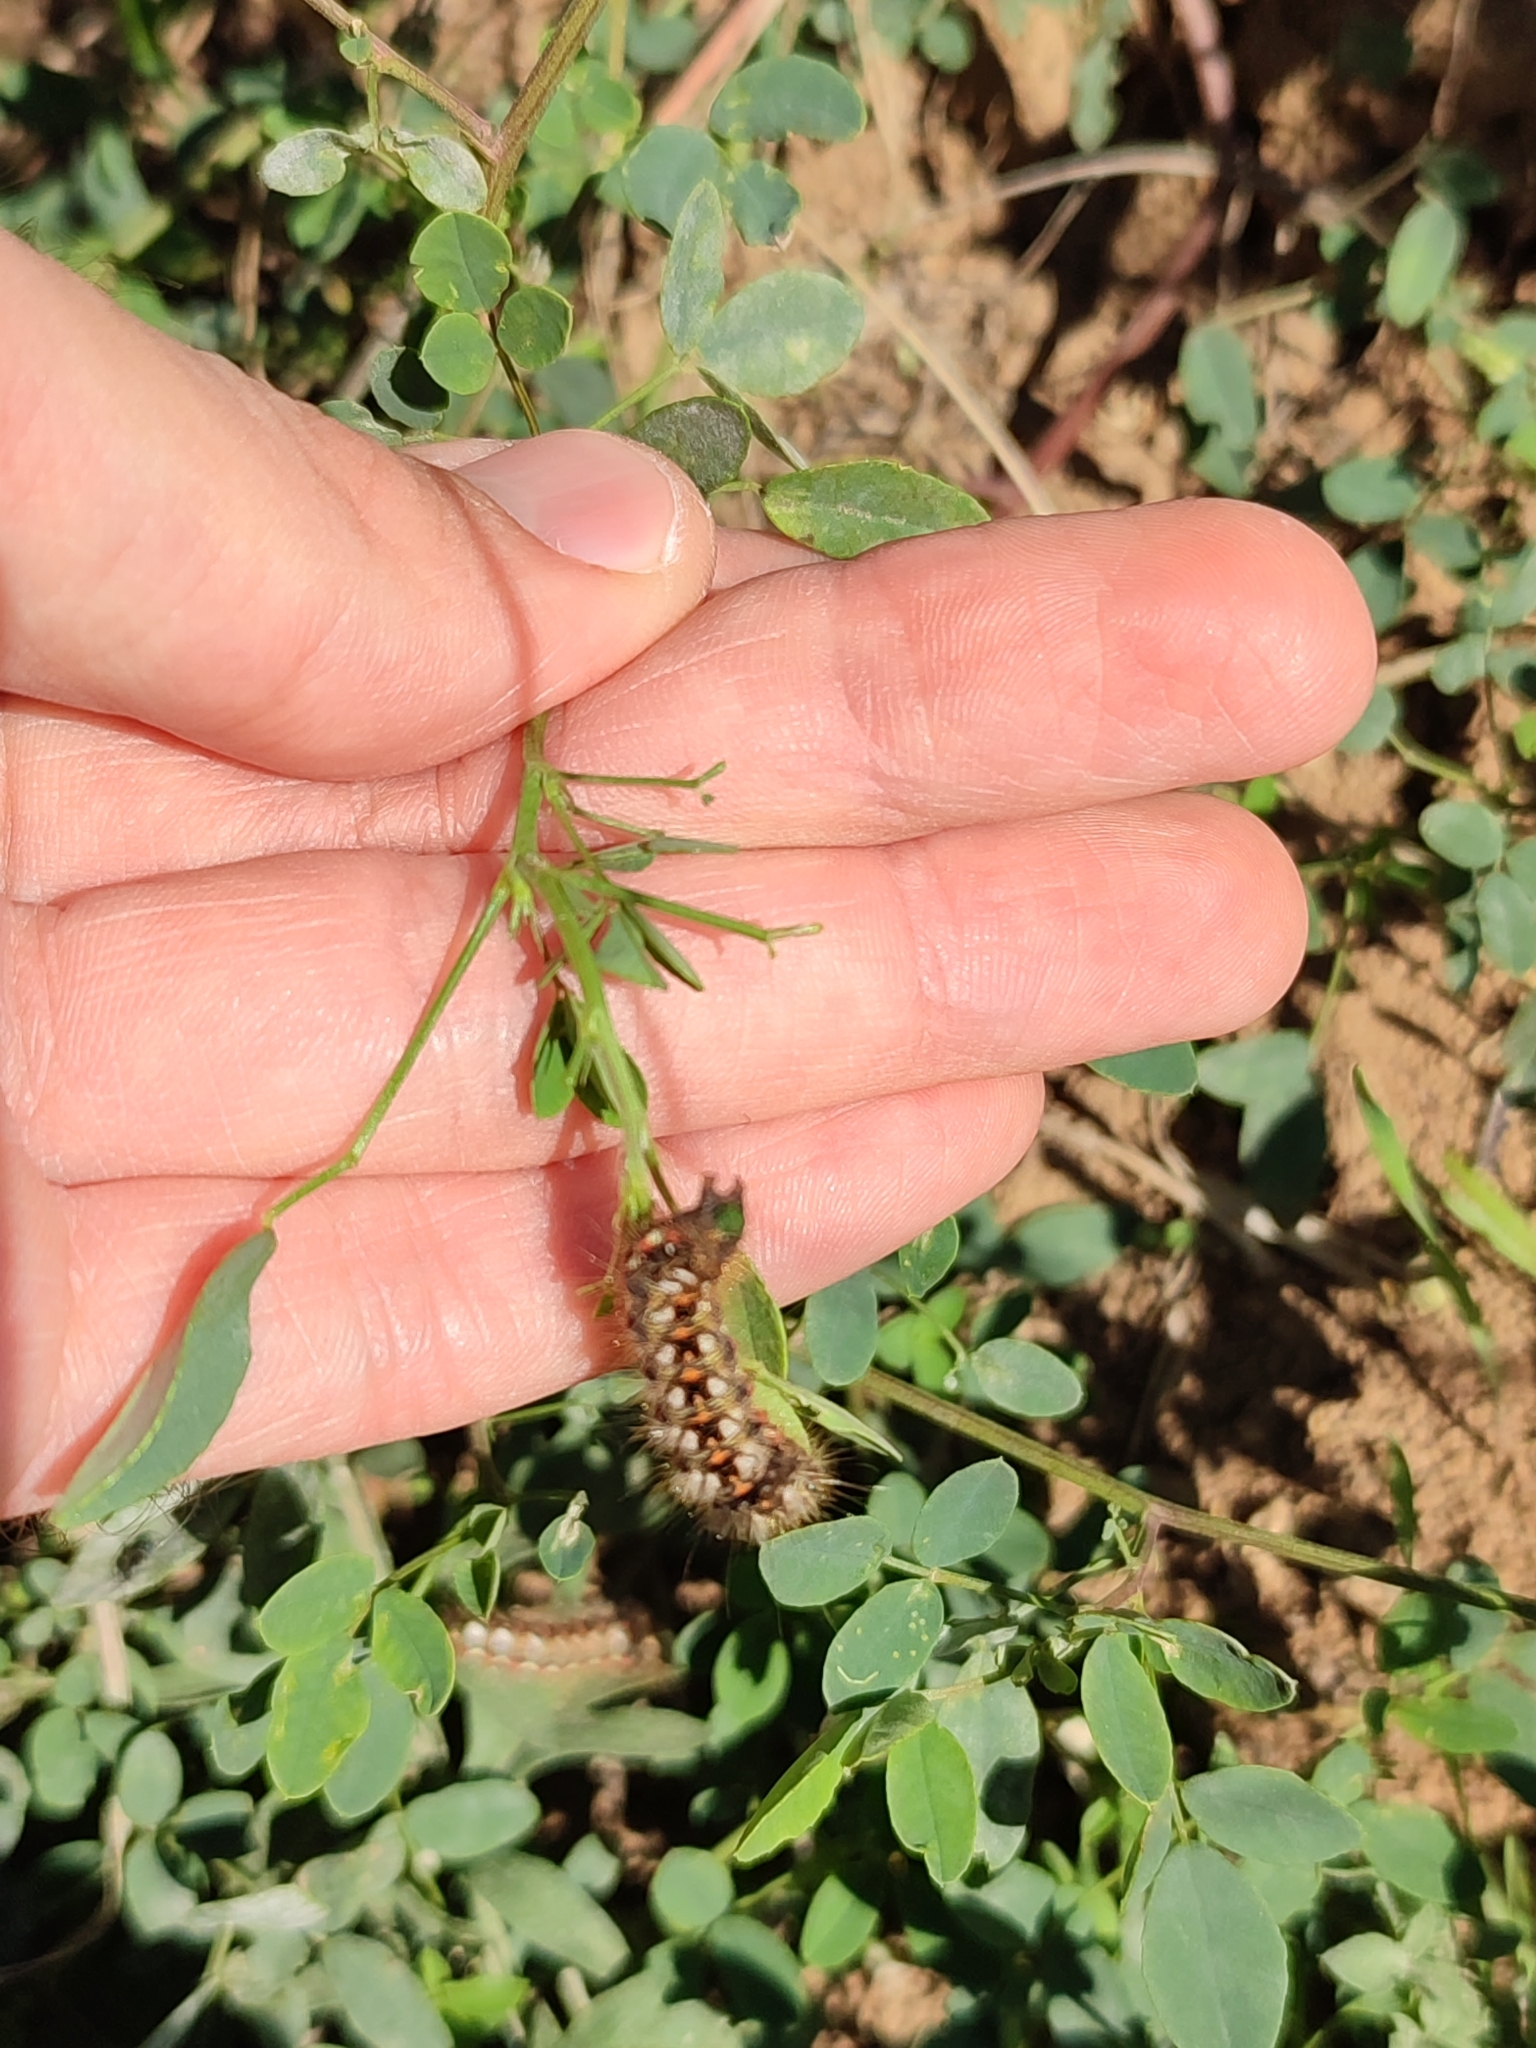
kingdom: Animalia
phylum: Arthropoda
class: Insecta
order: Lepidoptera
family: Noctuidae
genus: Acronicta
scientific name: Acronicta rumicis
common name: Knot grass
